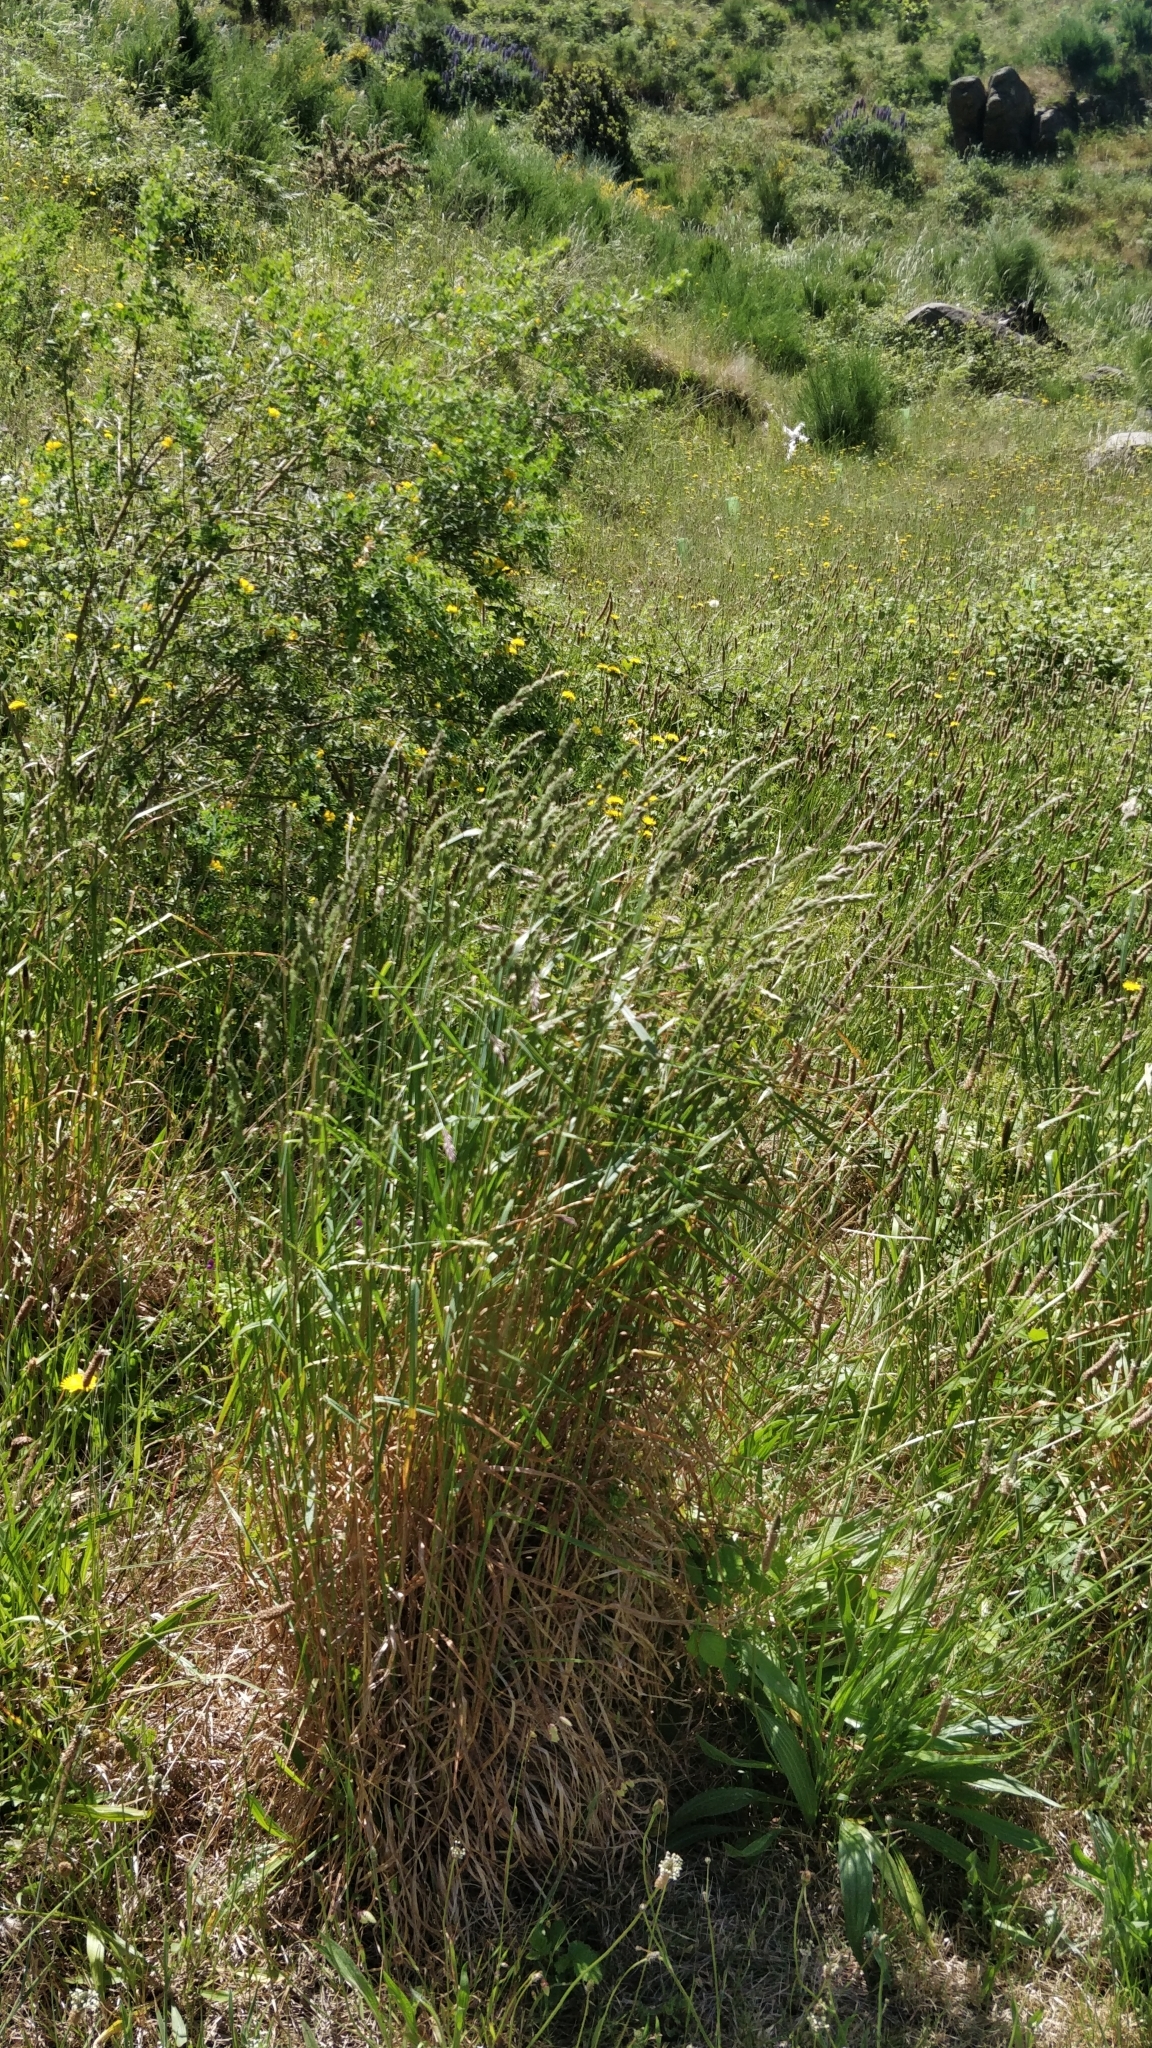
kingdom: Plantae
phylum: Tracheophyta
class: Liliopsida
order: Poales
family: Poaceae
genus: Dactylis
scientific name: Dactylis glomerata
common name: Orchardgrass
